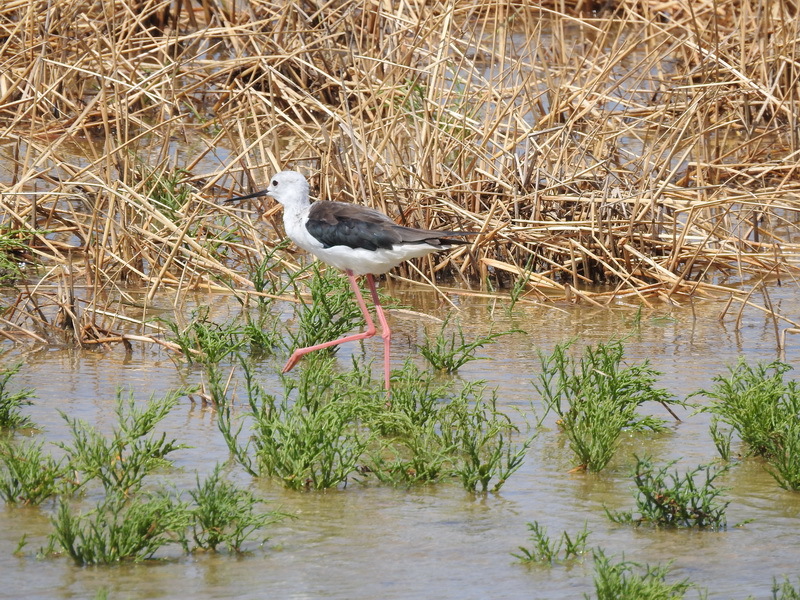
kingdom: Animalia
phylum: Chordata
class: Aves
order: Charadriiformes
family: Recurvirostridae
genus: Himantopus
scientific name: Himantopus himantopus
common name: Black-winged stilt
